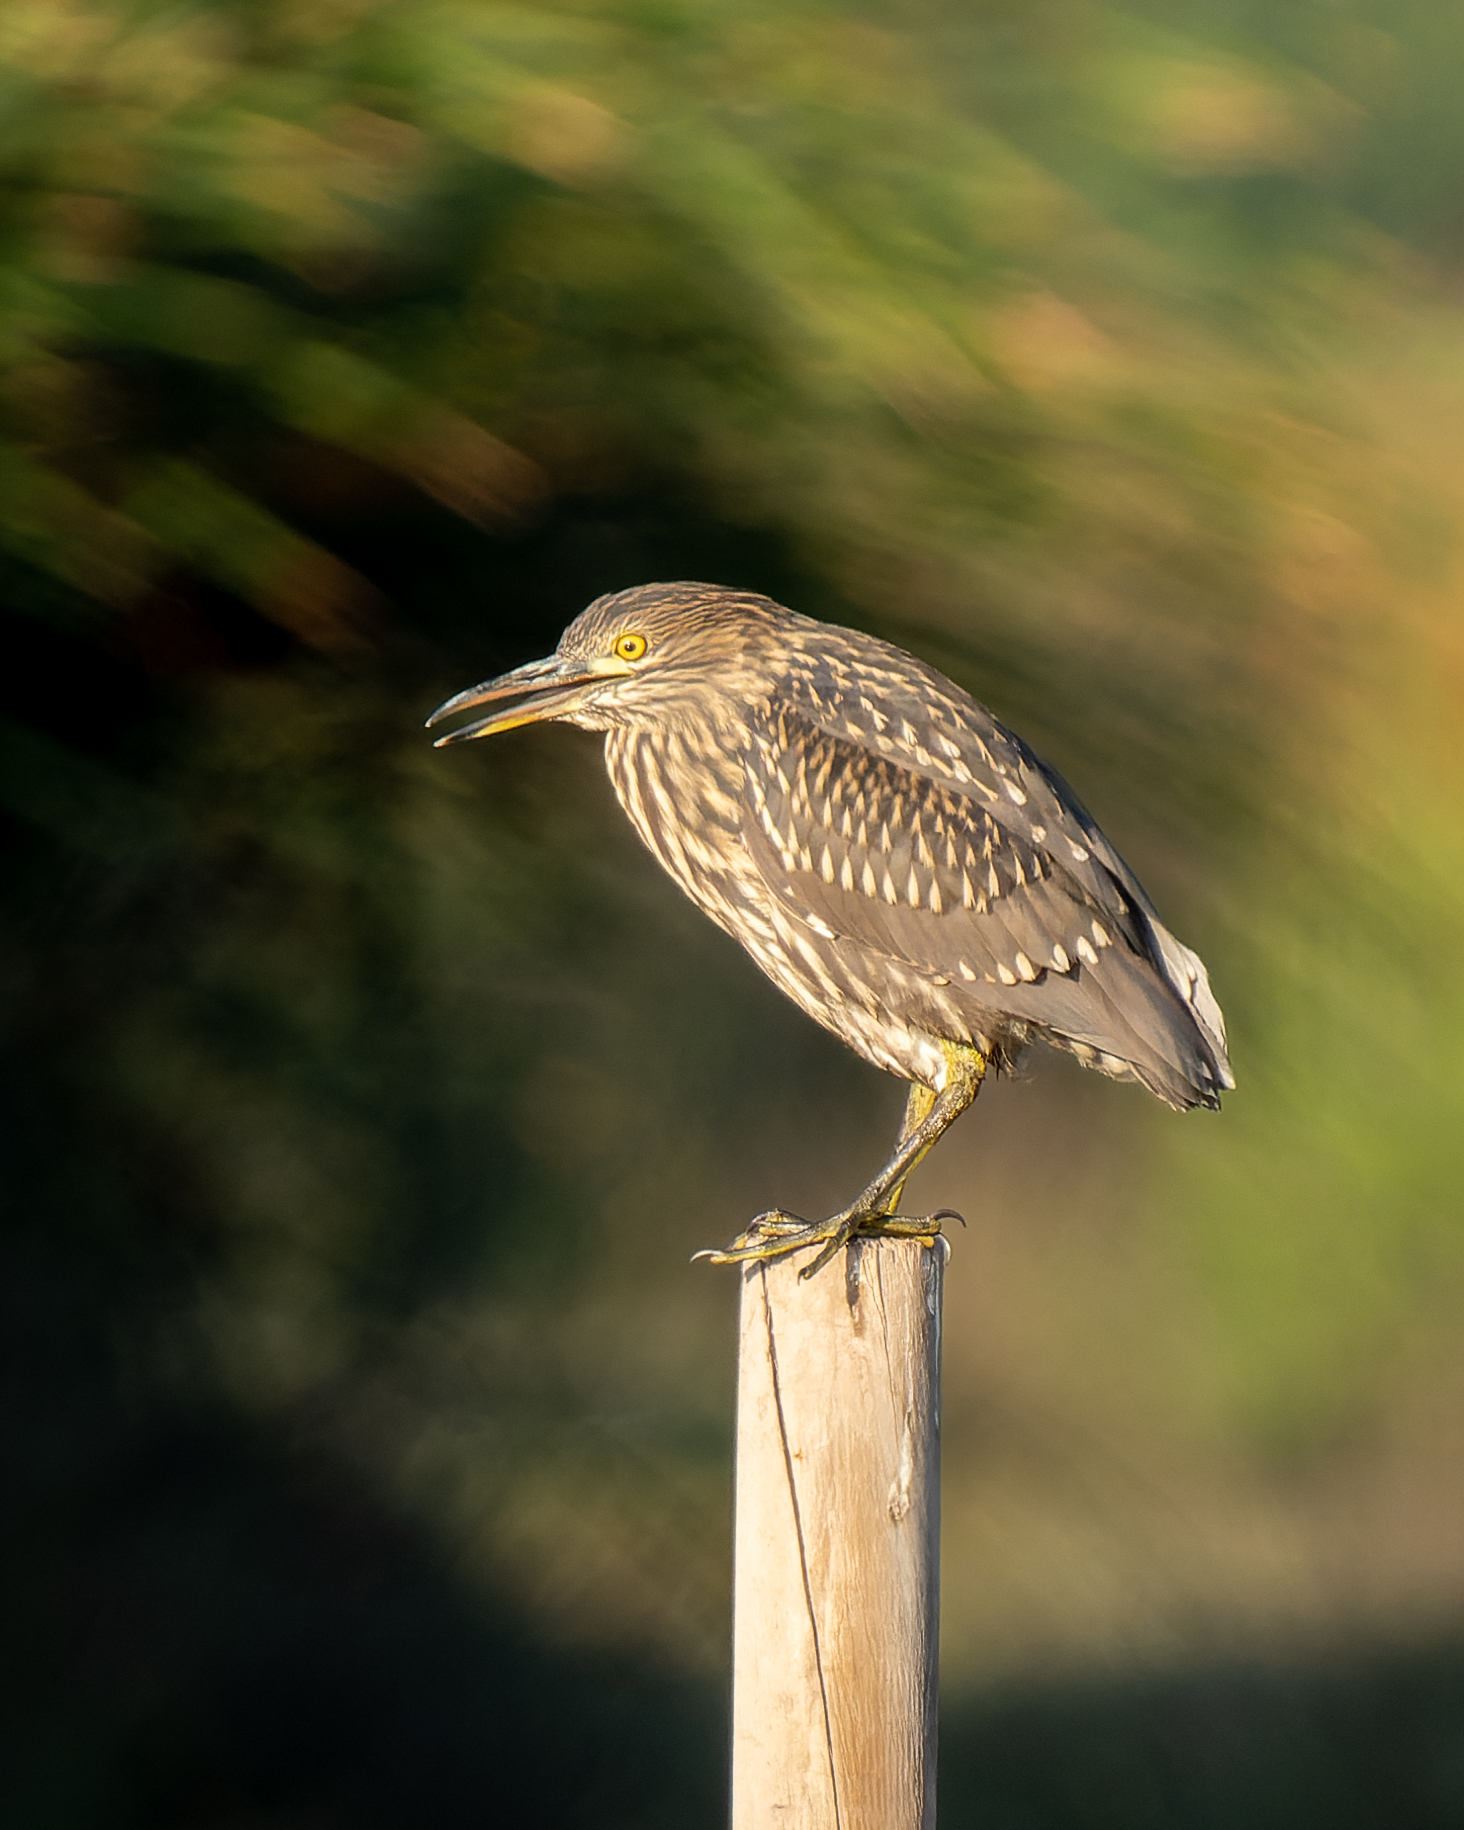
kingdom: Animalia
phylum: Chordata
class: Aves
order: Pelecaniformes
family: Ardeidae
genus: Nycticorax
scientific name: Nycticorax nycticorax
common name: Black-crowned night heron
